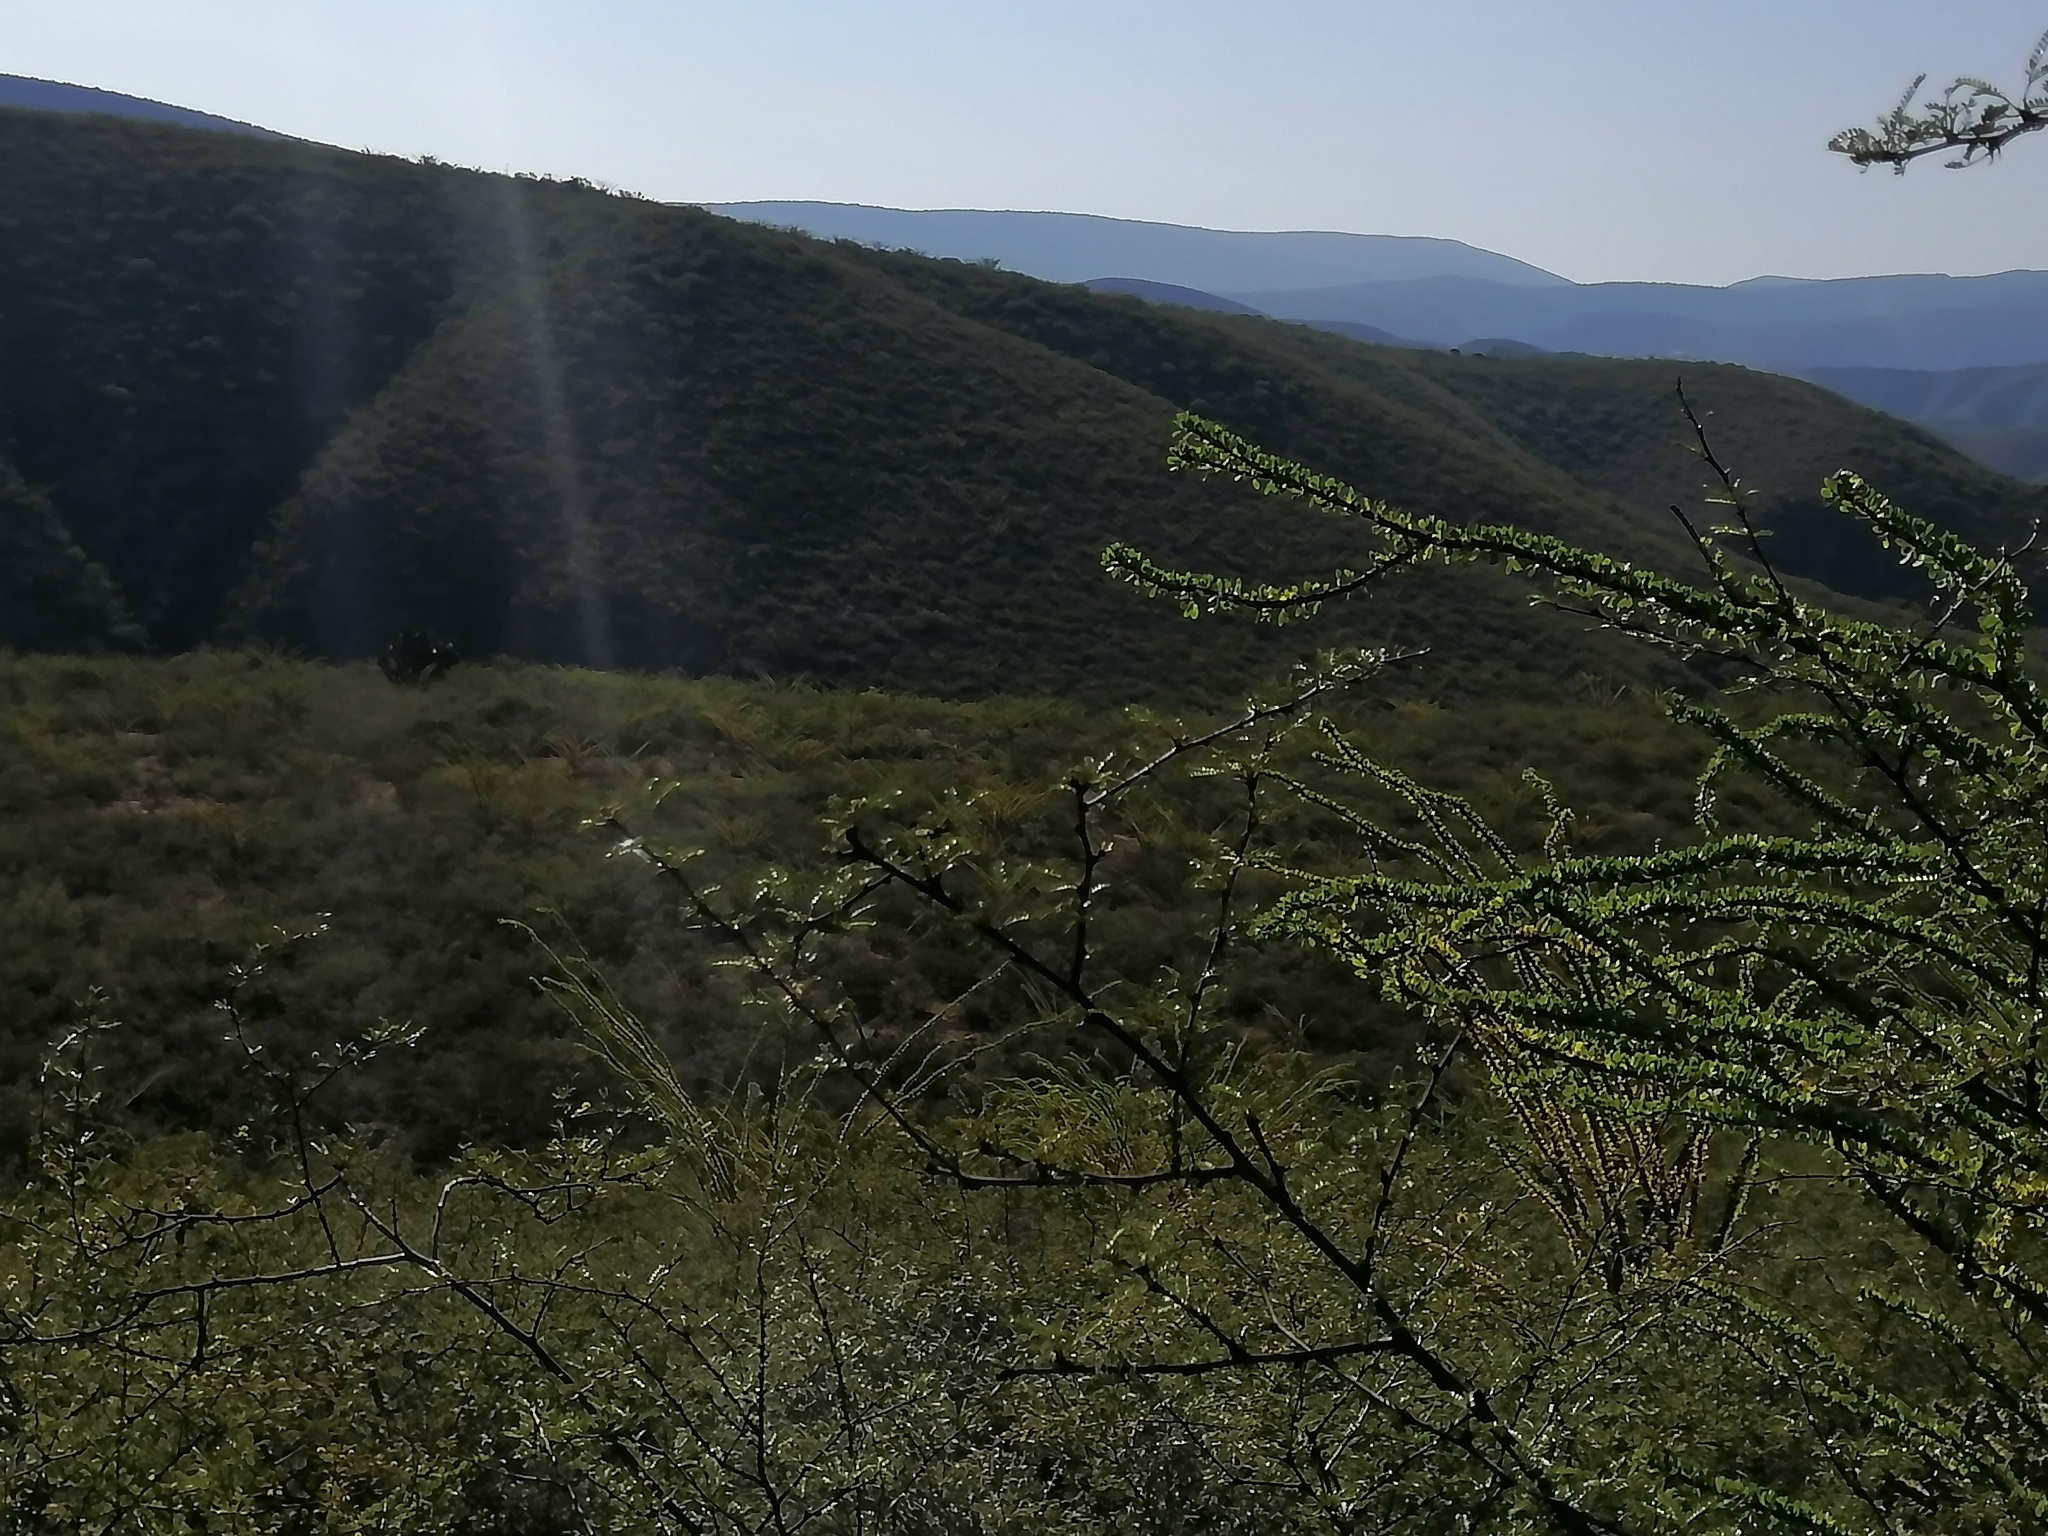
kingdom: Plantae
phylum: Tracheophyta
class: Magnoliopsida
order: Ericales
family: Fouquieriaceae
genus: Fouquieria
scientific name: Fouquieria splendens
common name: Vine-cactus
